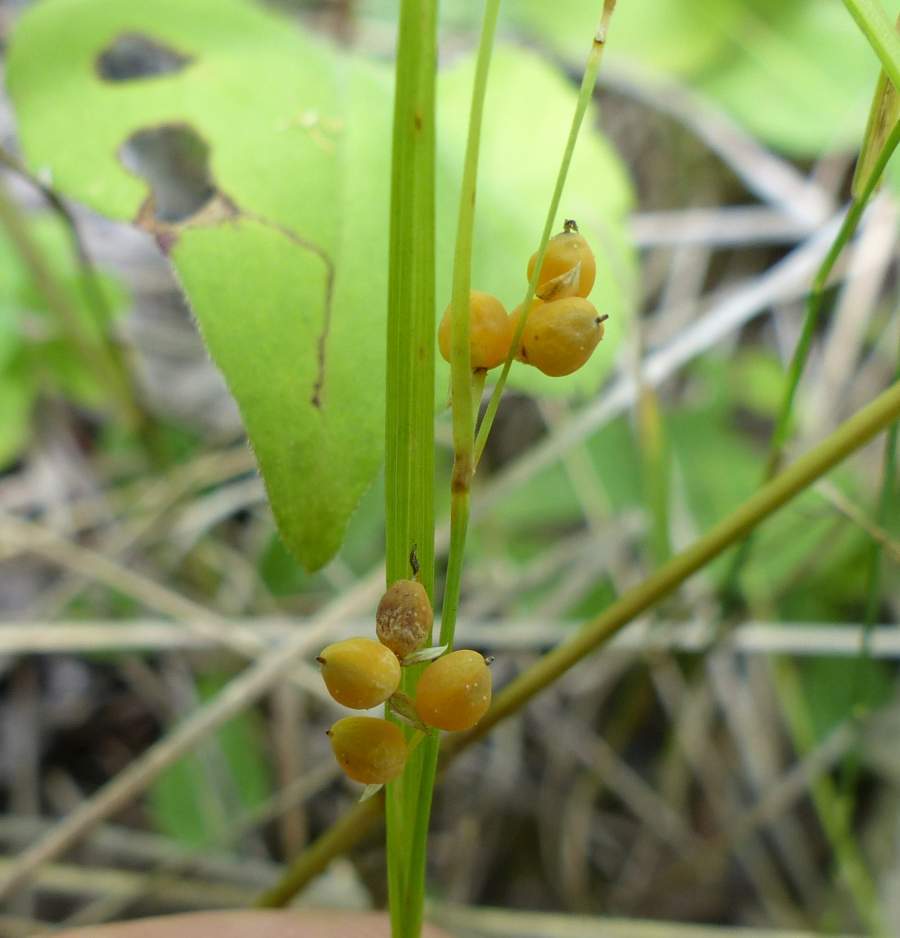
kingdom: Plantae
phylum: Tracheophyta
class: Liliopsida
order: Poales
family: Cyperaceae
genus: Carex
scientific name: Carex aurea
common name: Golden sedge
